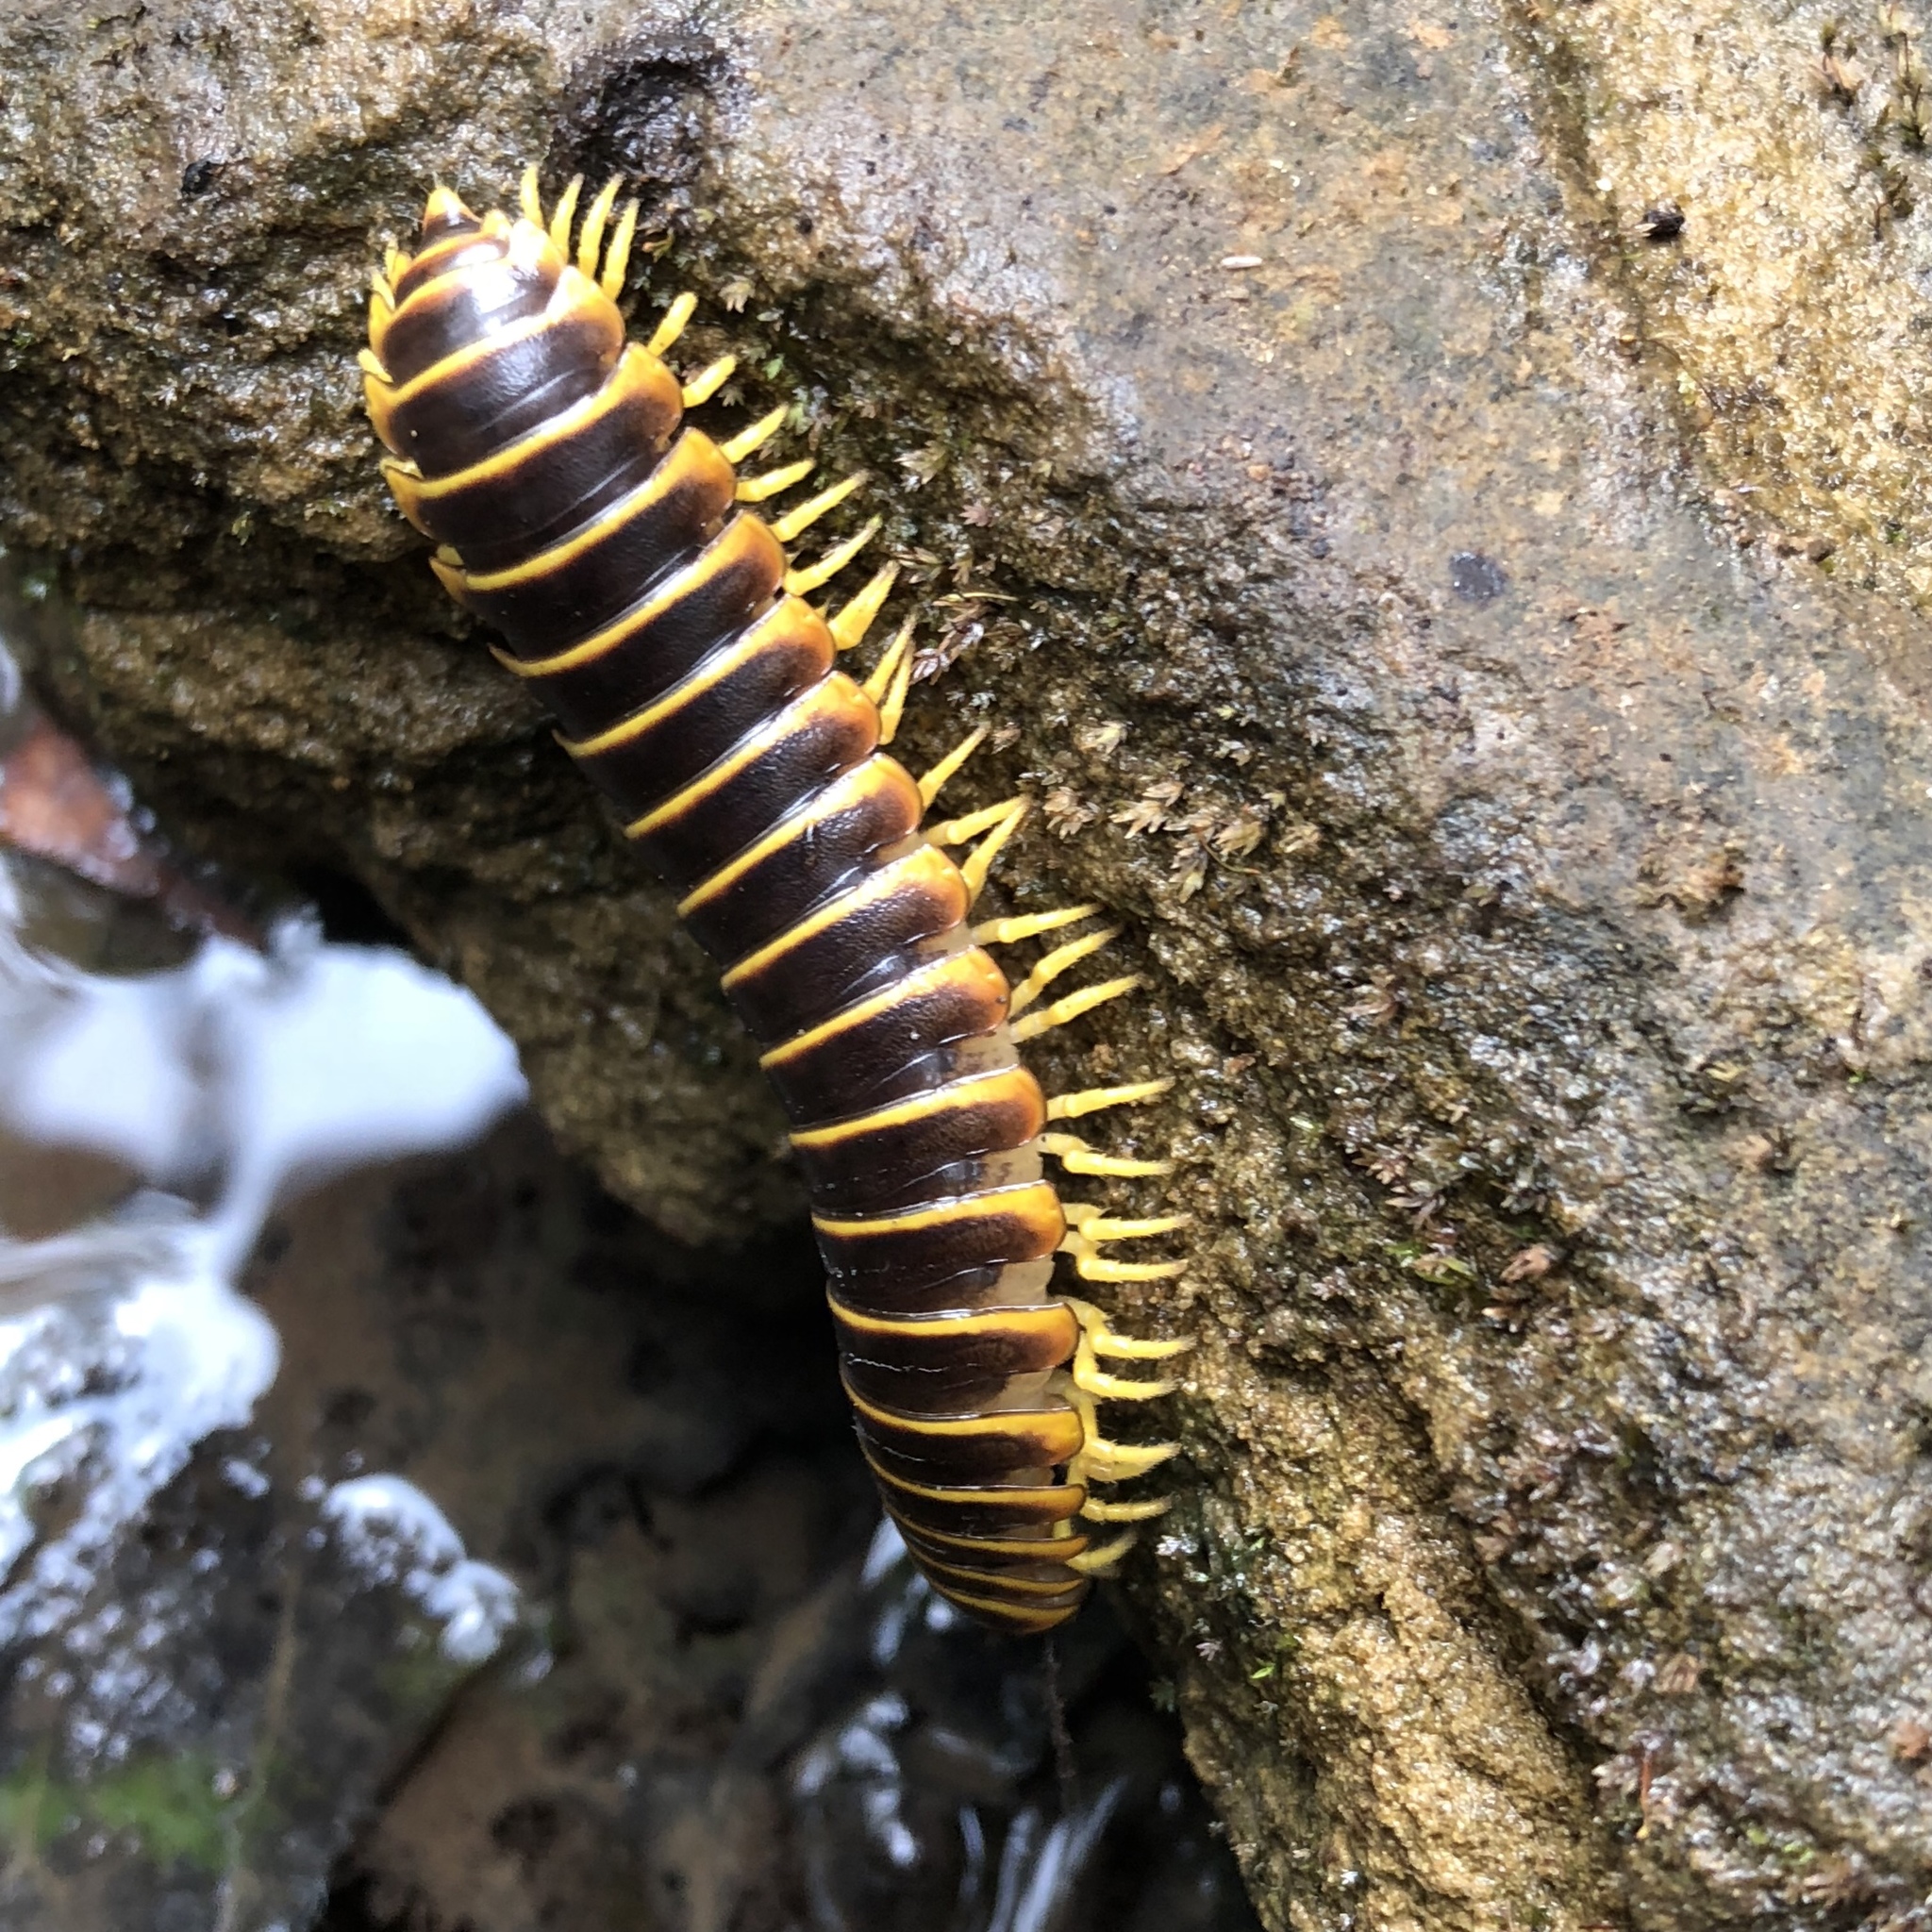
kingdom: Animalia
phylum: Arthropoda
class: Diplopoda
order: Polydesmida
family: Xystodesmidae
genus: Apheloria
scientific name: Apheloria virginiensis
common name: Black-and-gold flat millipede
